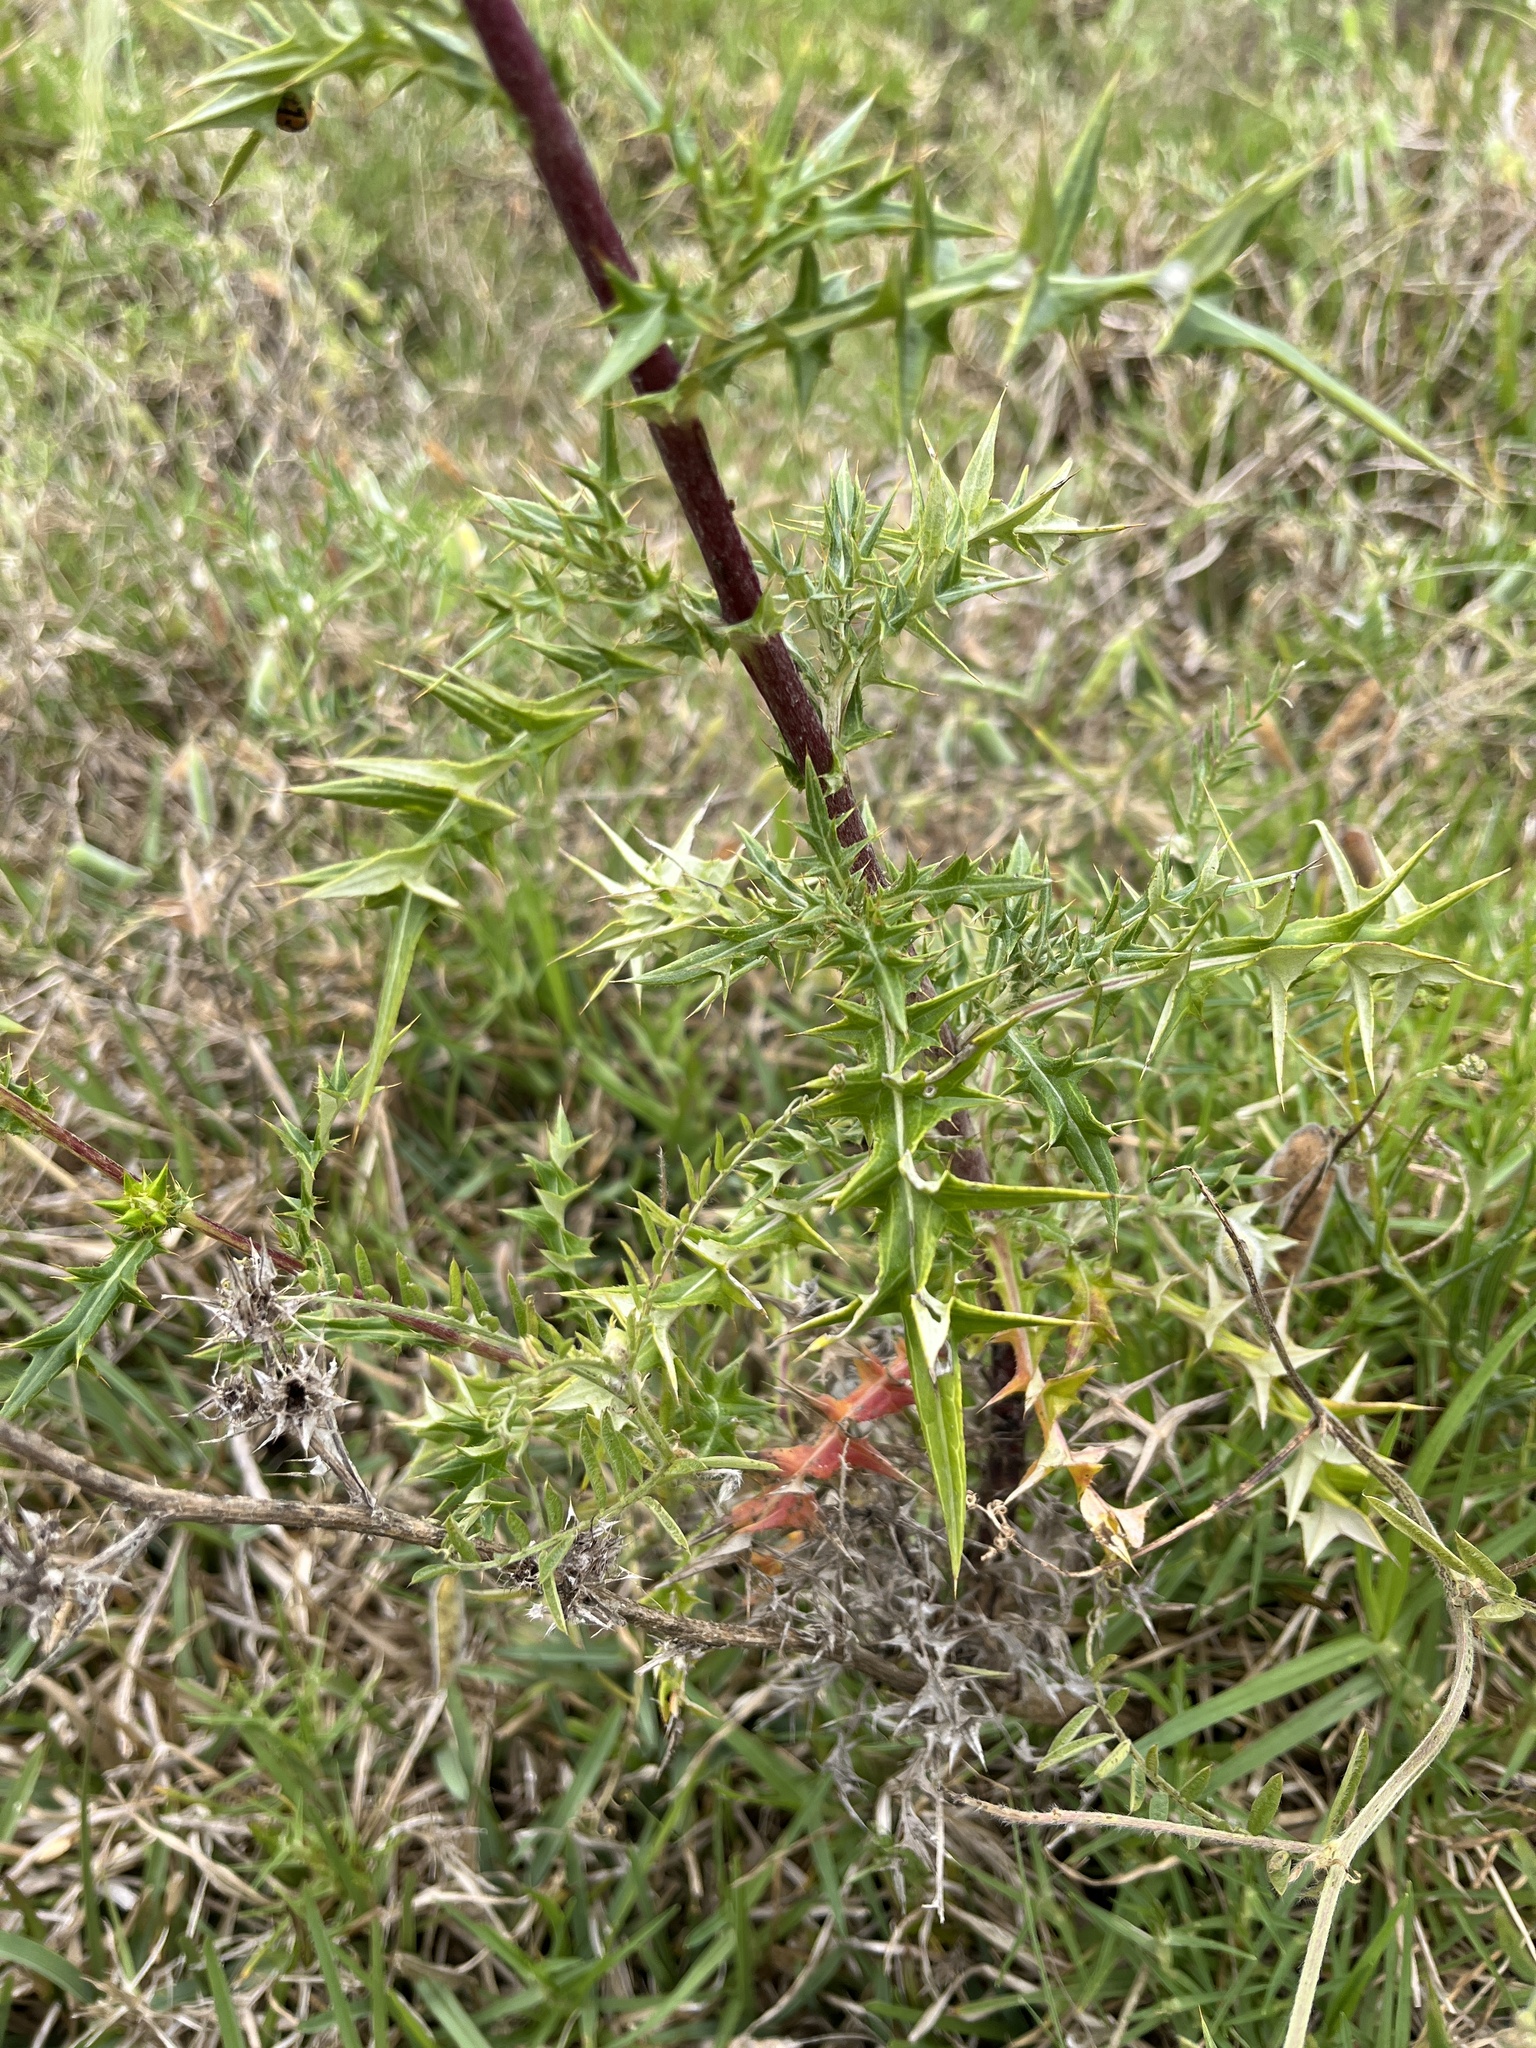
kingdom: Plantae
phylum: Tracheophyta
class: Magnoliopsida
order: Asterales
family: Asteraceae
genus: Berkheya
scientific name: Berkheya rigida
